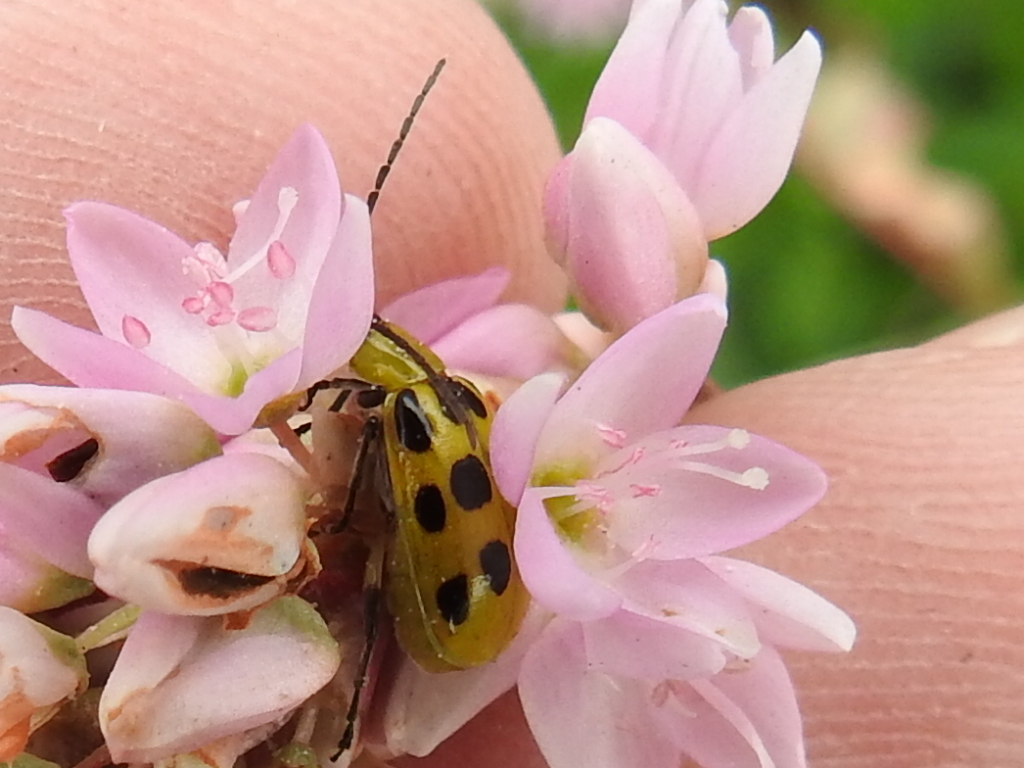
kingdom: Animalia
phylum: Arthropoda
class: Insecta
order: Coleoptera
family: Chrysomelidae
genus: Diabrotica
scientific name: Diabrotica undecimpunctata
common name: Spotted cucumber beetle
